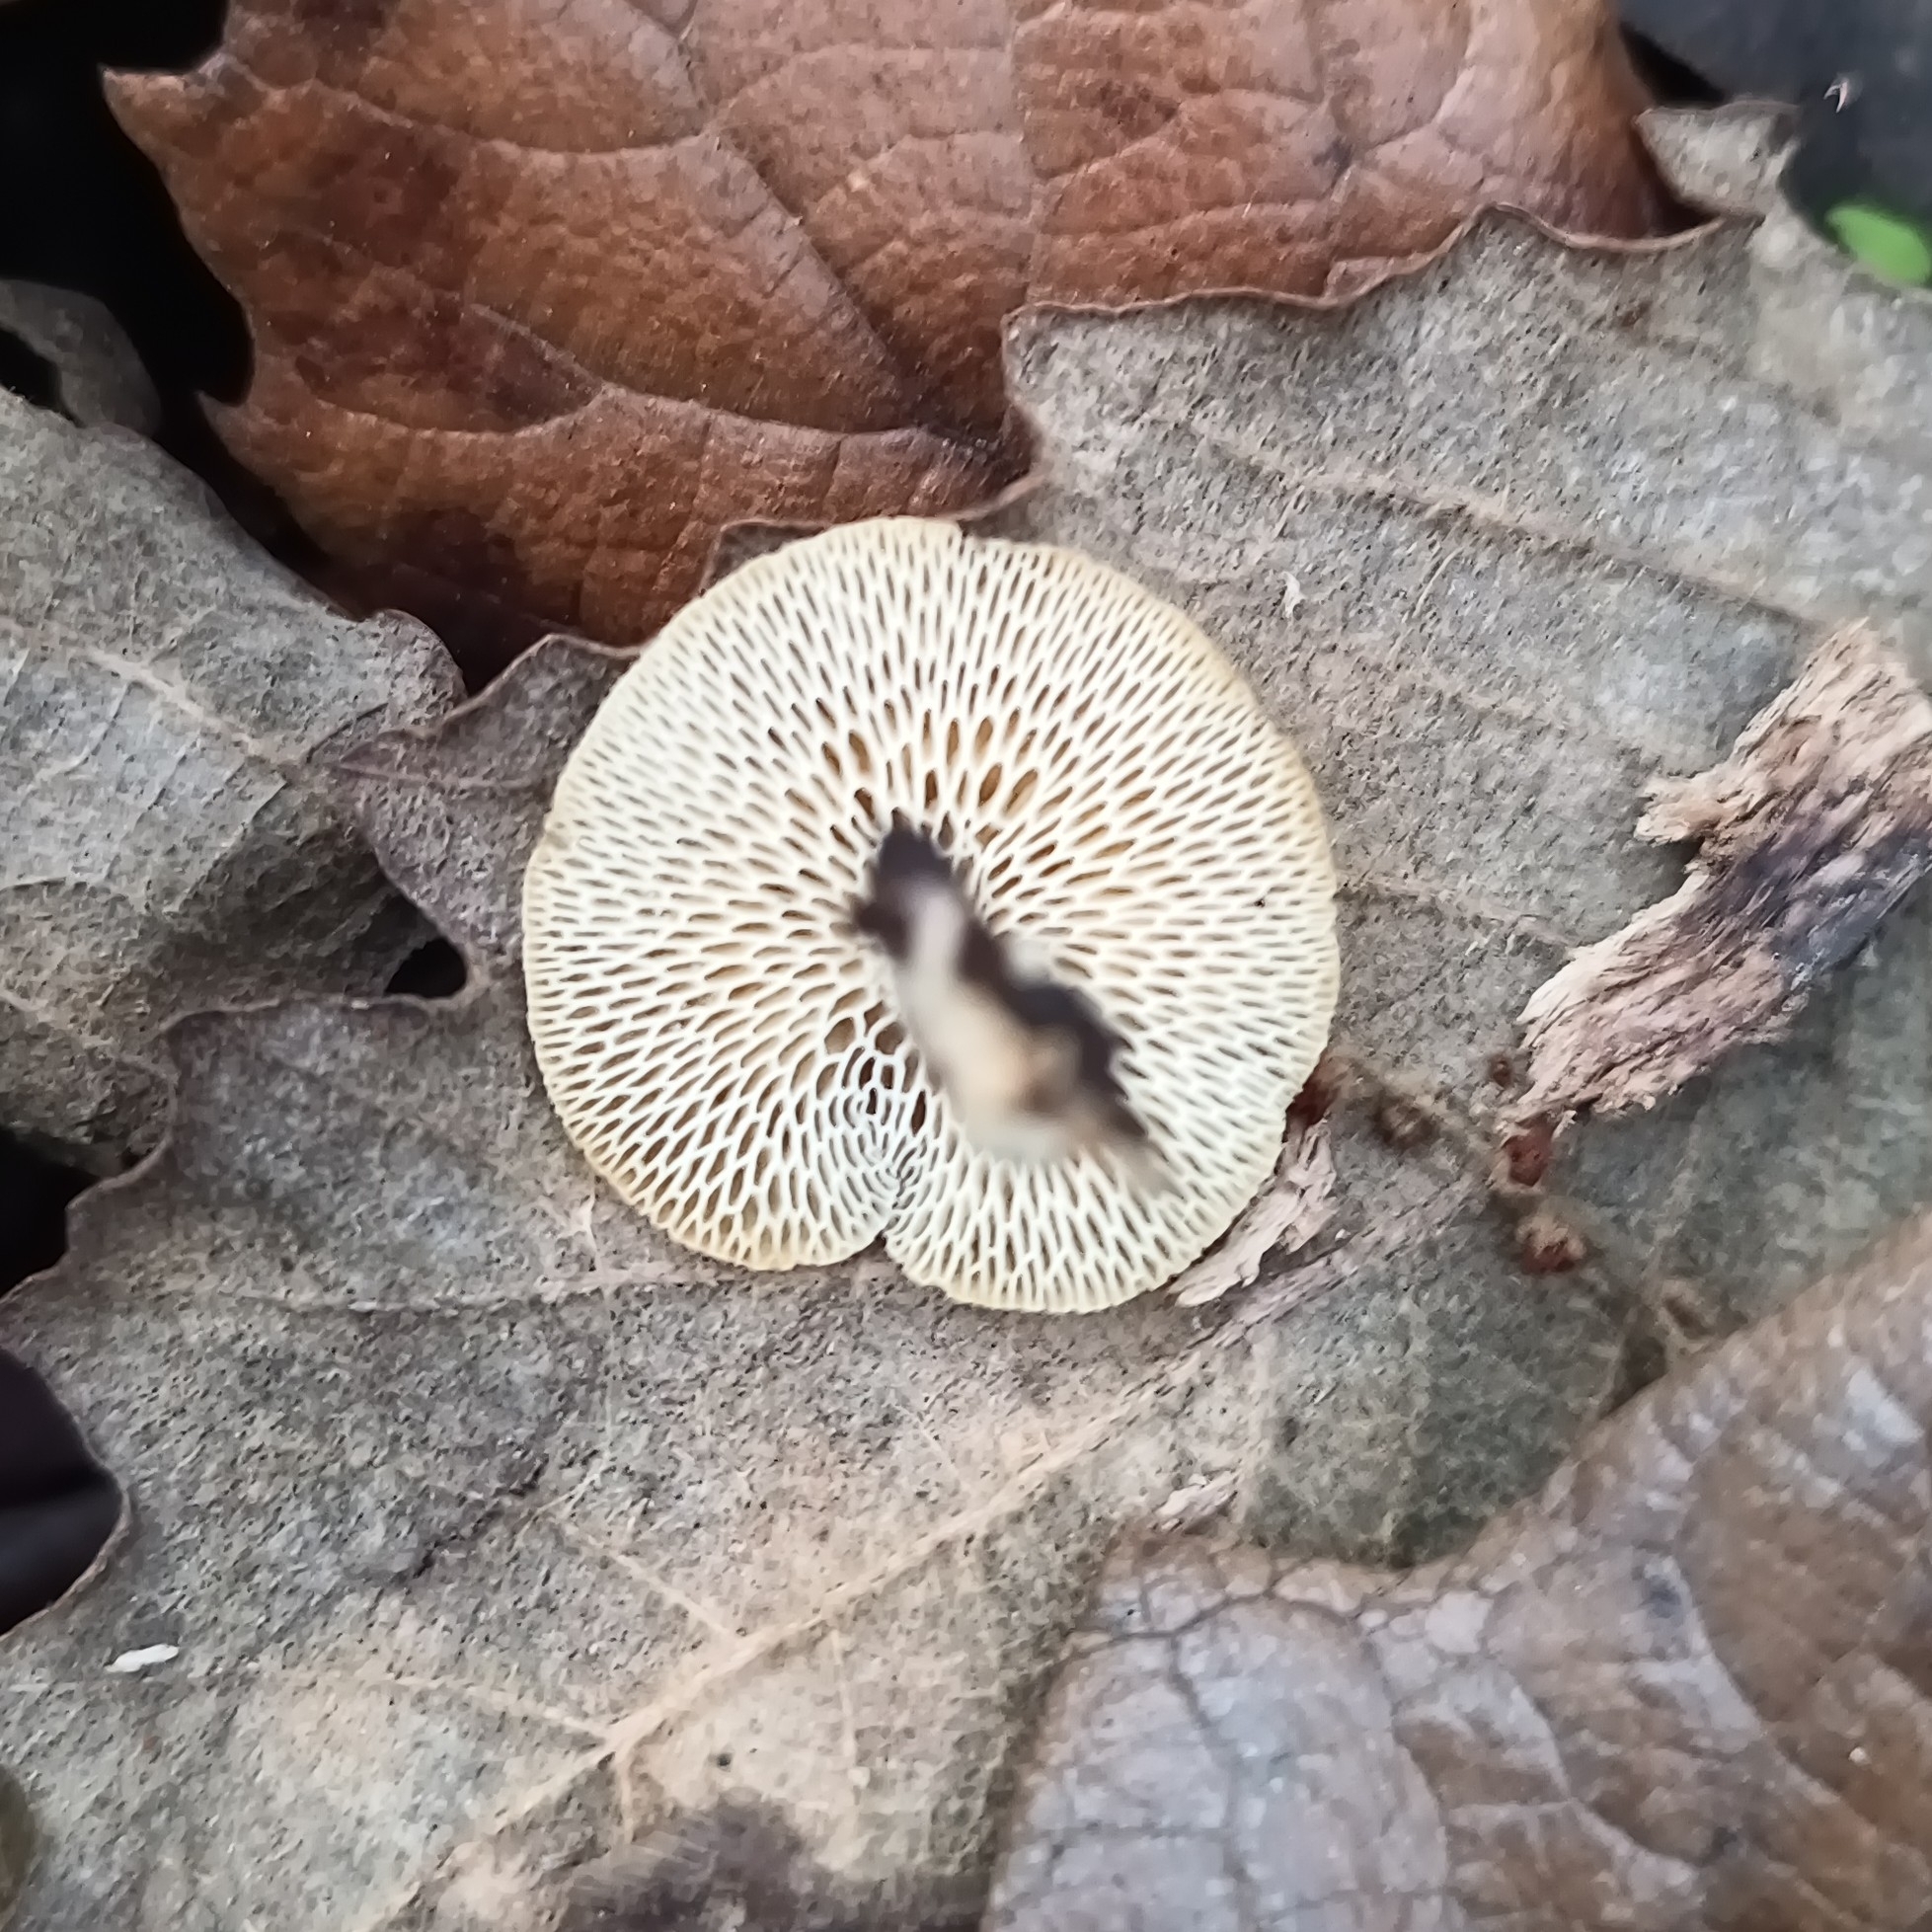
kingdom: Fungi
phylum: Basidiomycota
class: Agaricomycetes
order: Polyporales
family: Polyporaceae
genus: Lentinus
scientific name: Lentinus arcularius
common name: Spring polypore
